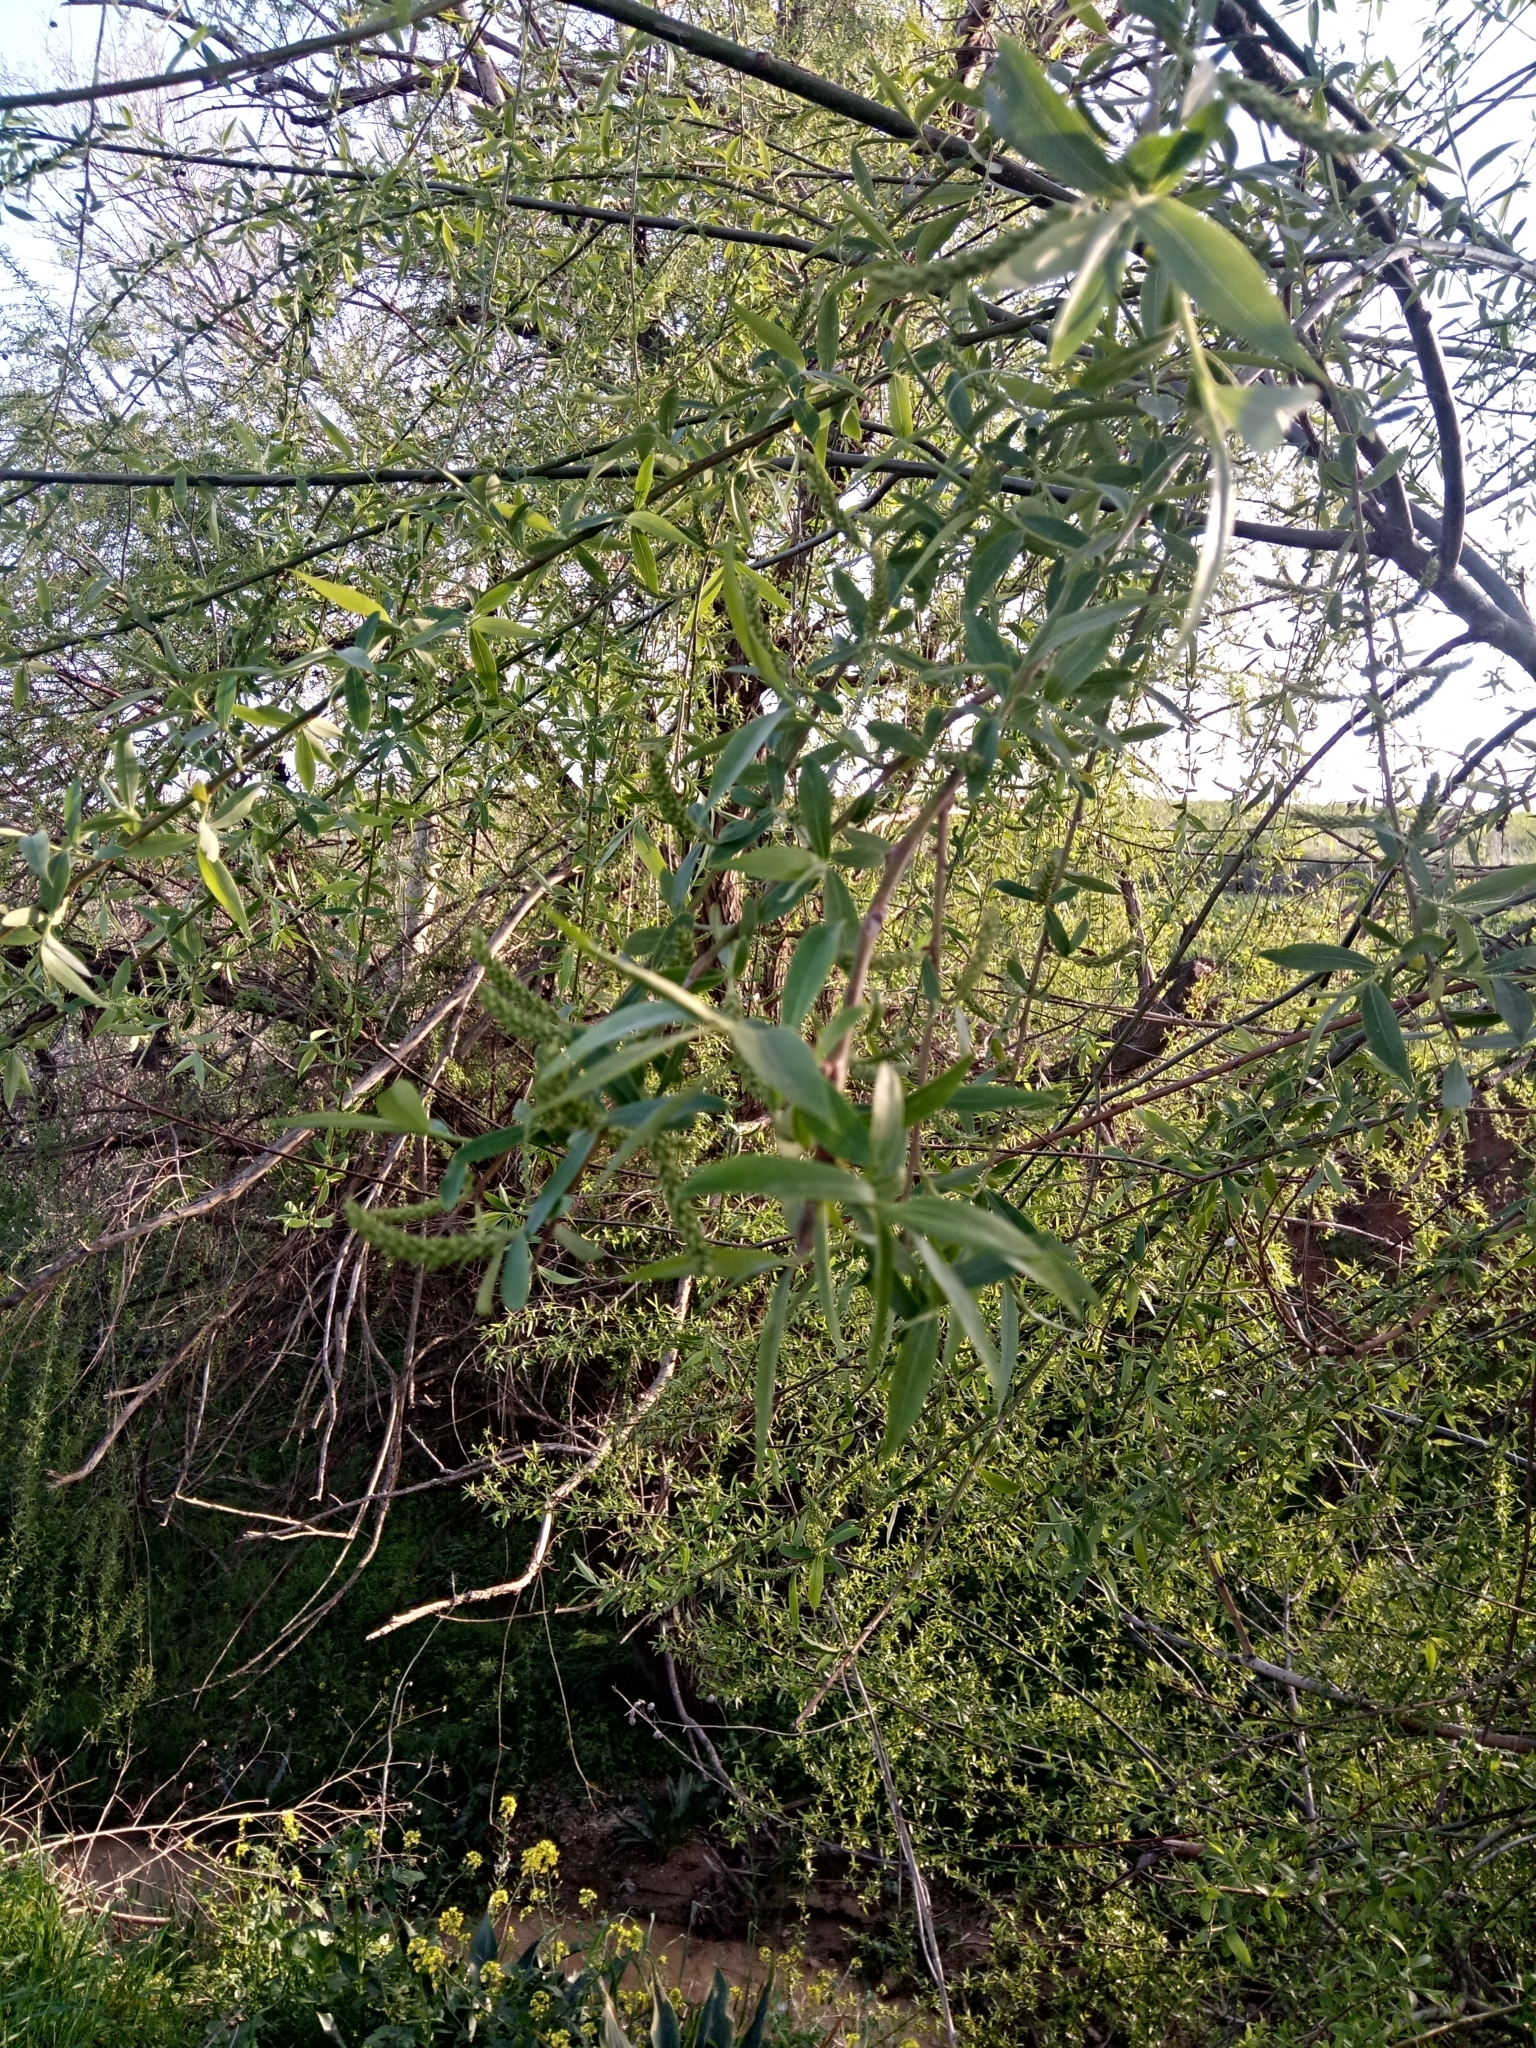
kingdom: Plantae
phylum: Tracheophyta
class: Magnoliopsida
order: Malpighiales
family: Salicaceae
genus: Salix
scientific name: Salix alba
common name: White willow
